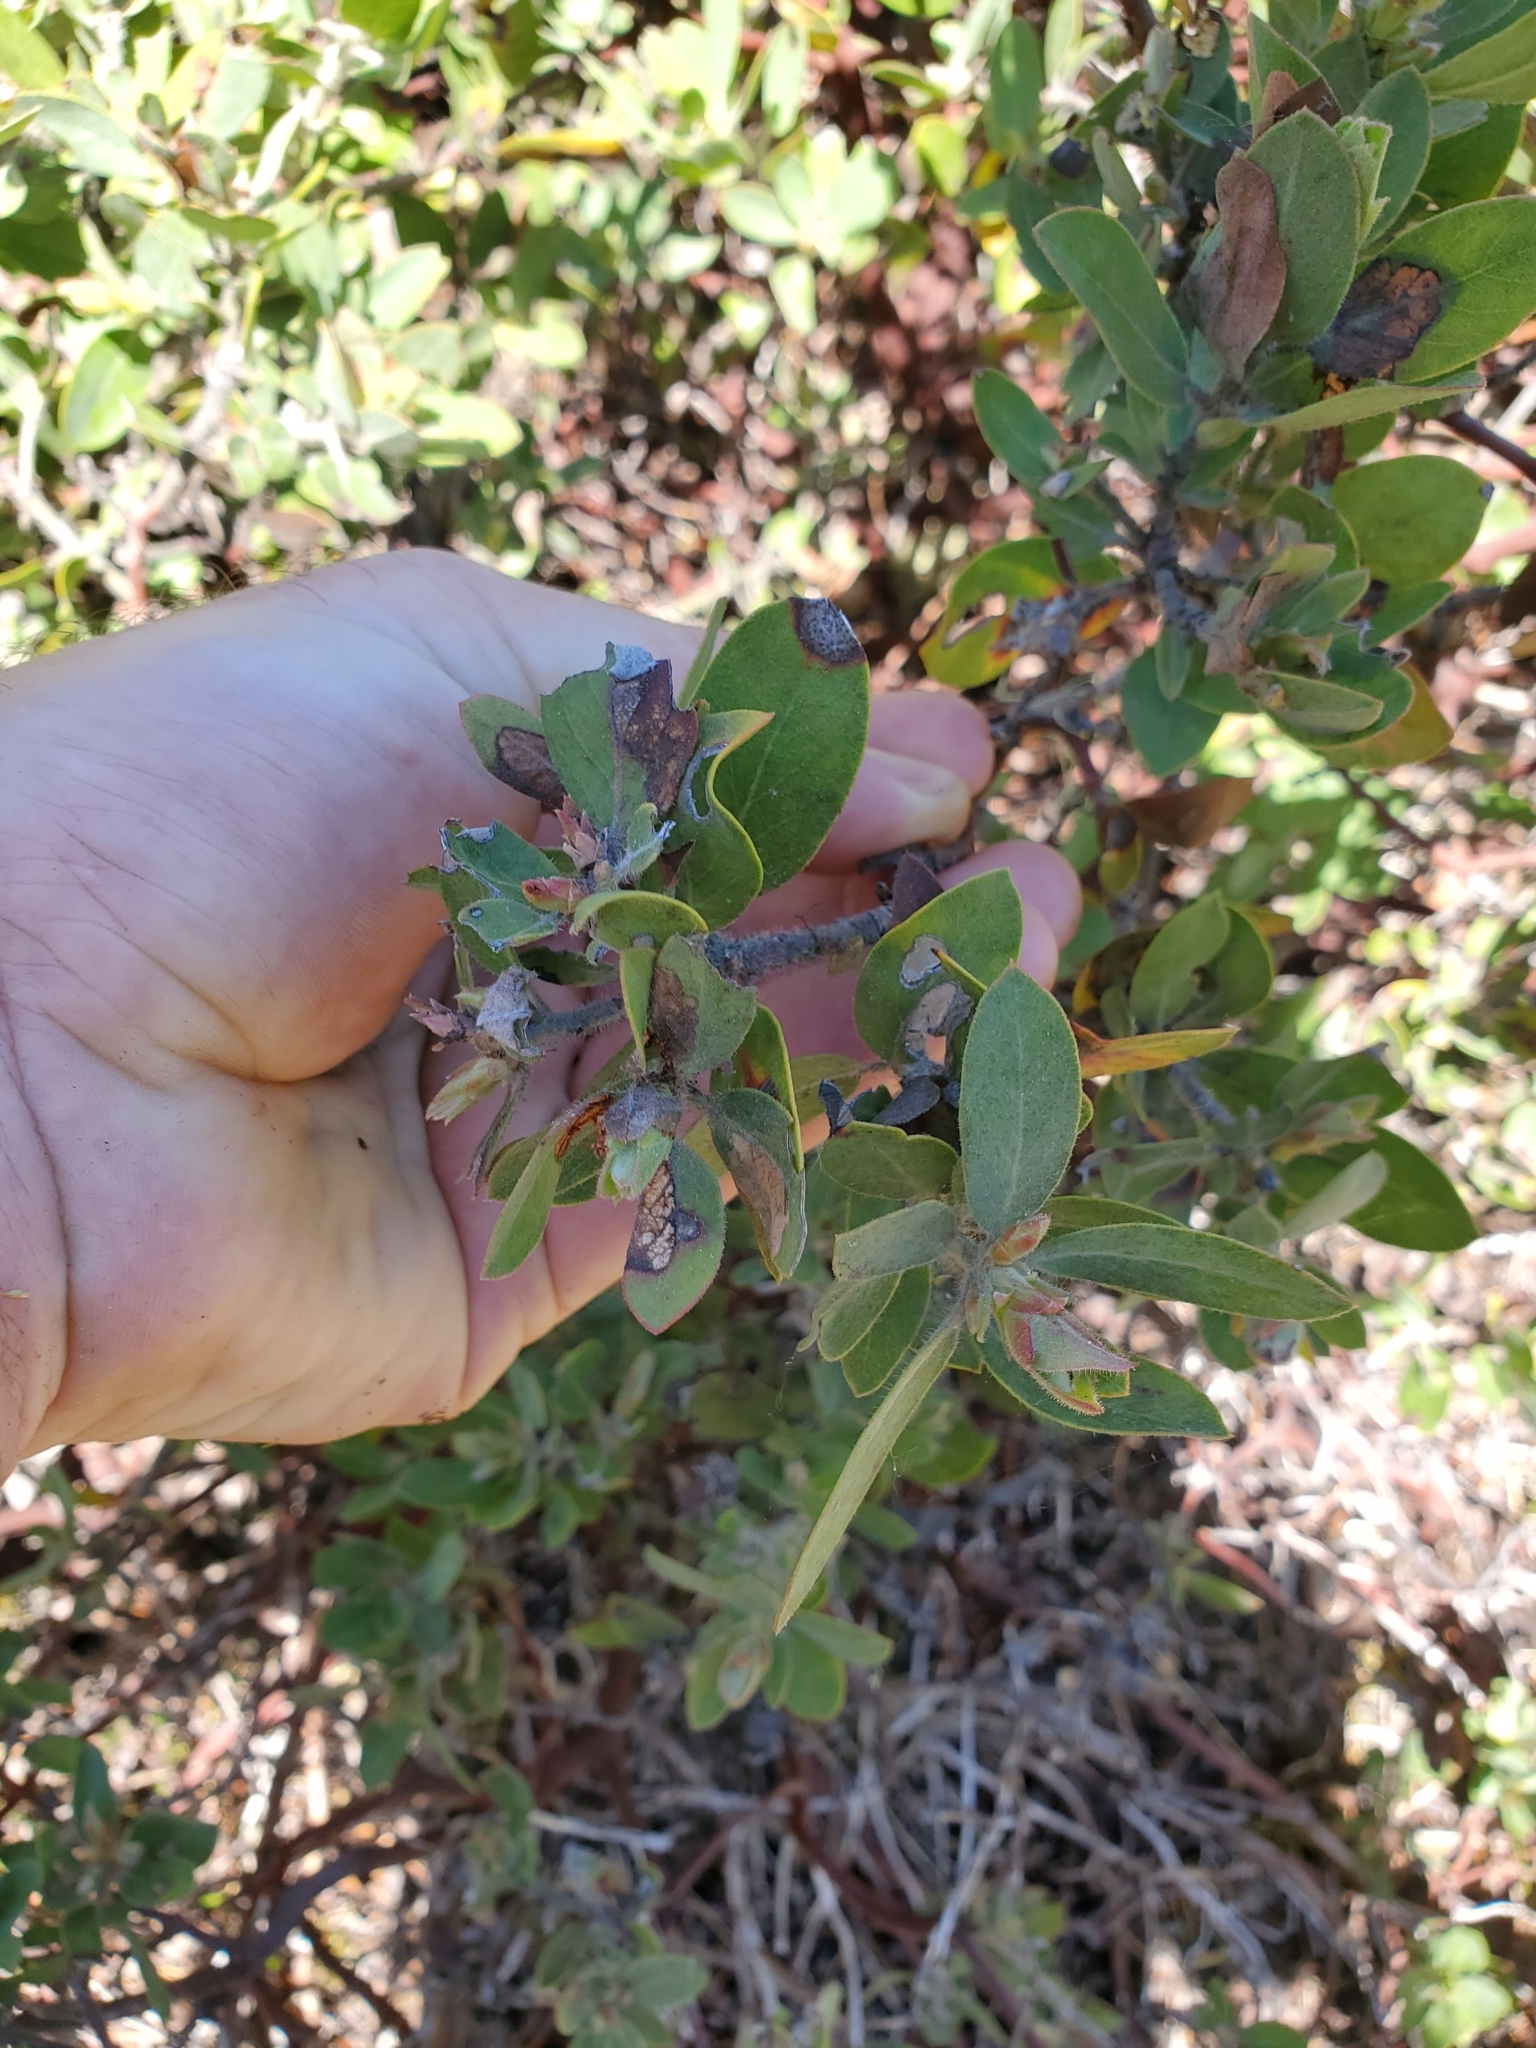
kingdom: Plantae
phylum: Tracheophyta
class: Magnoliopsida
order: Ericales
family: Ericaceae
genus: Arctostaphylos
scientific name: Arctostaphylos columbiana
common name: Bristly bearberry
